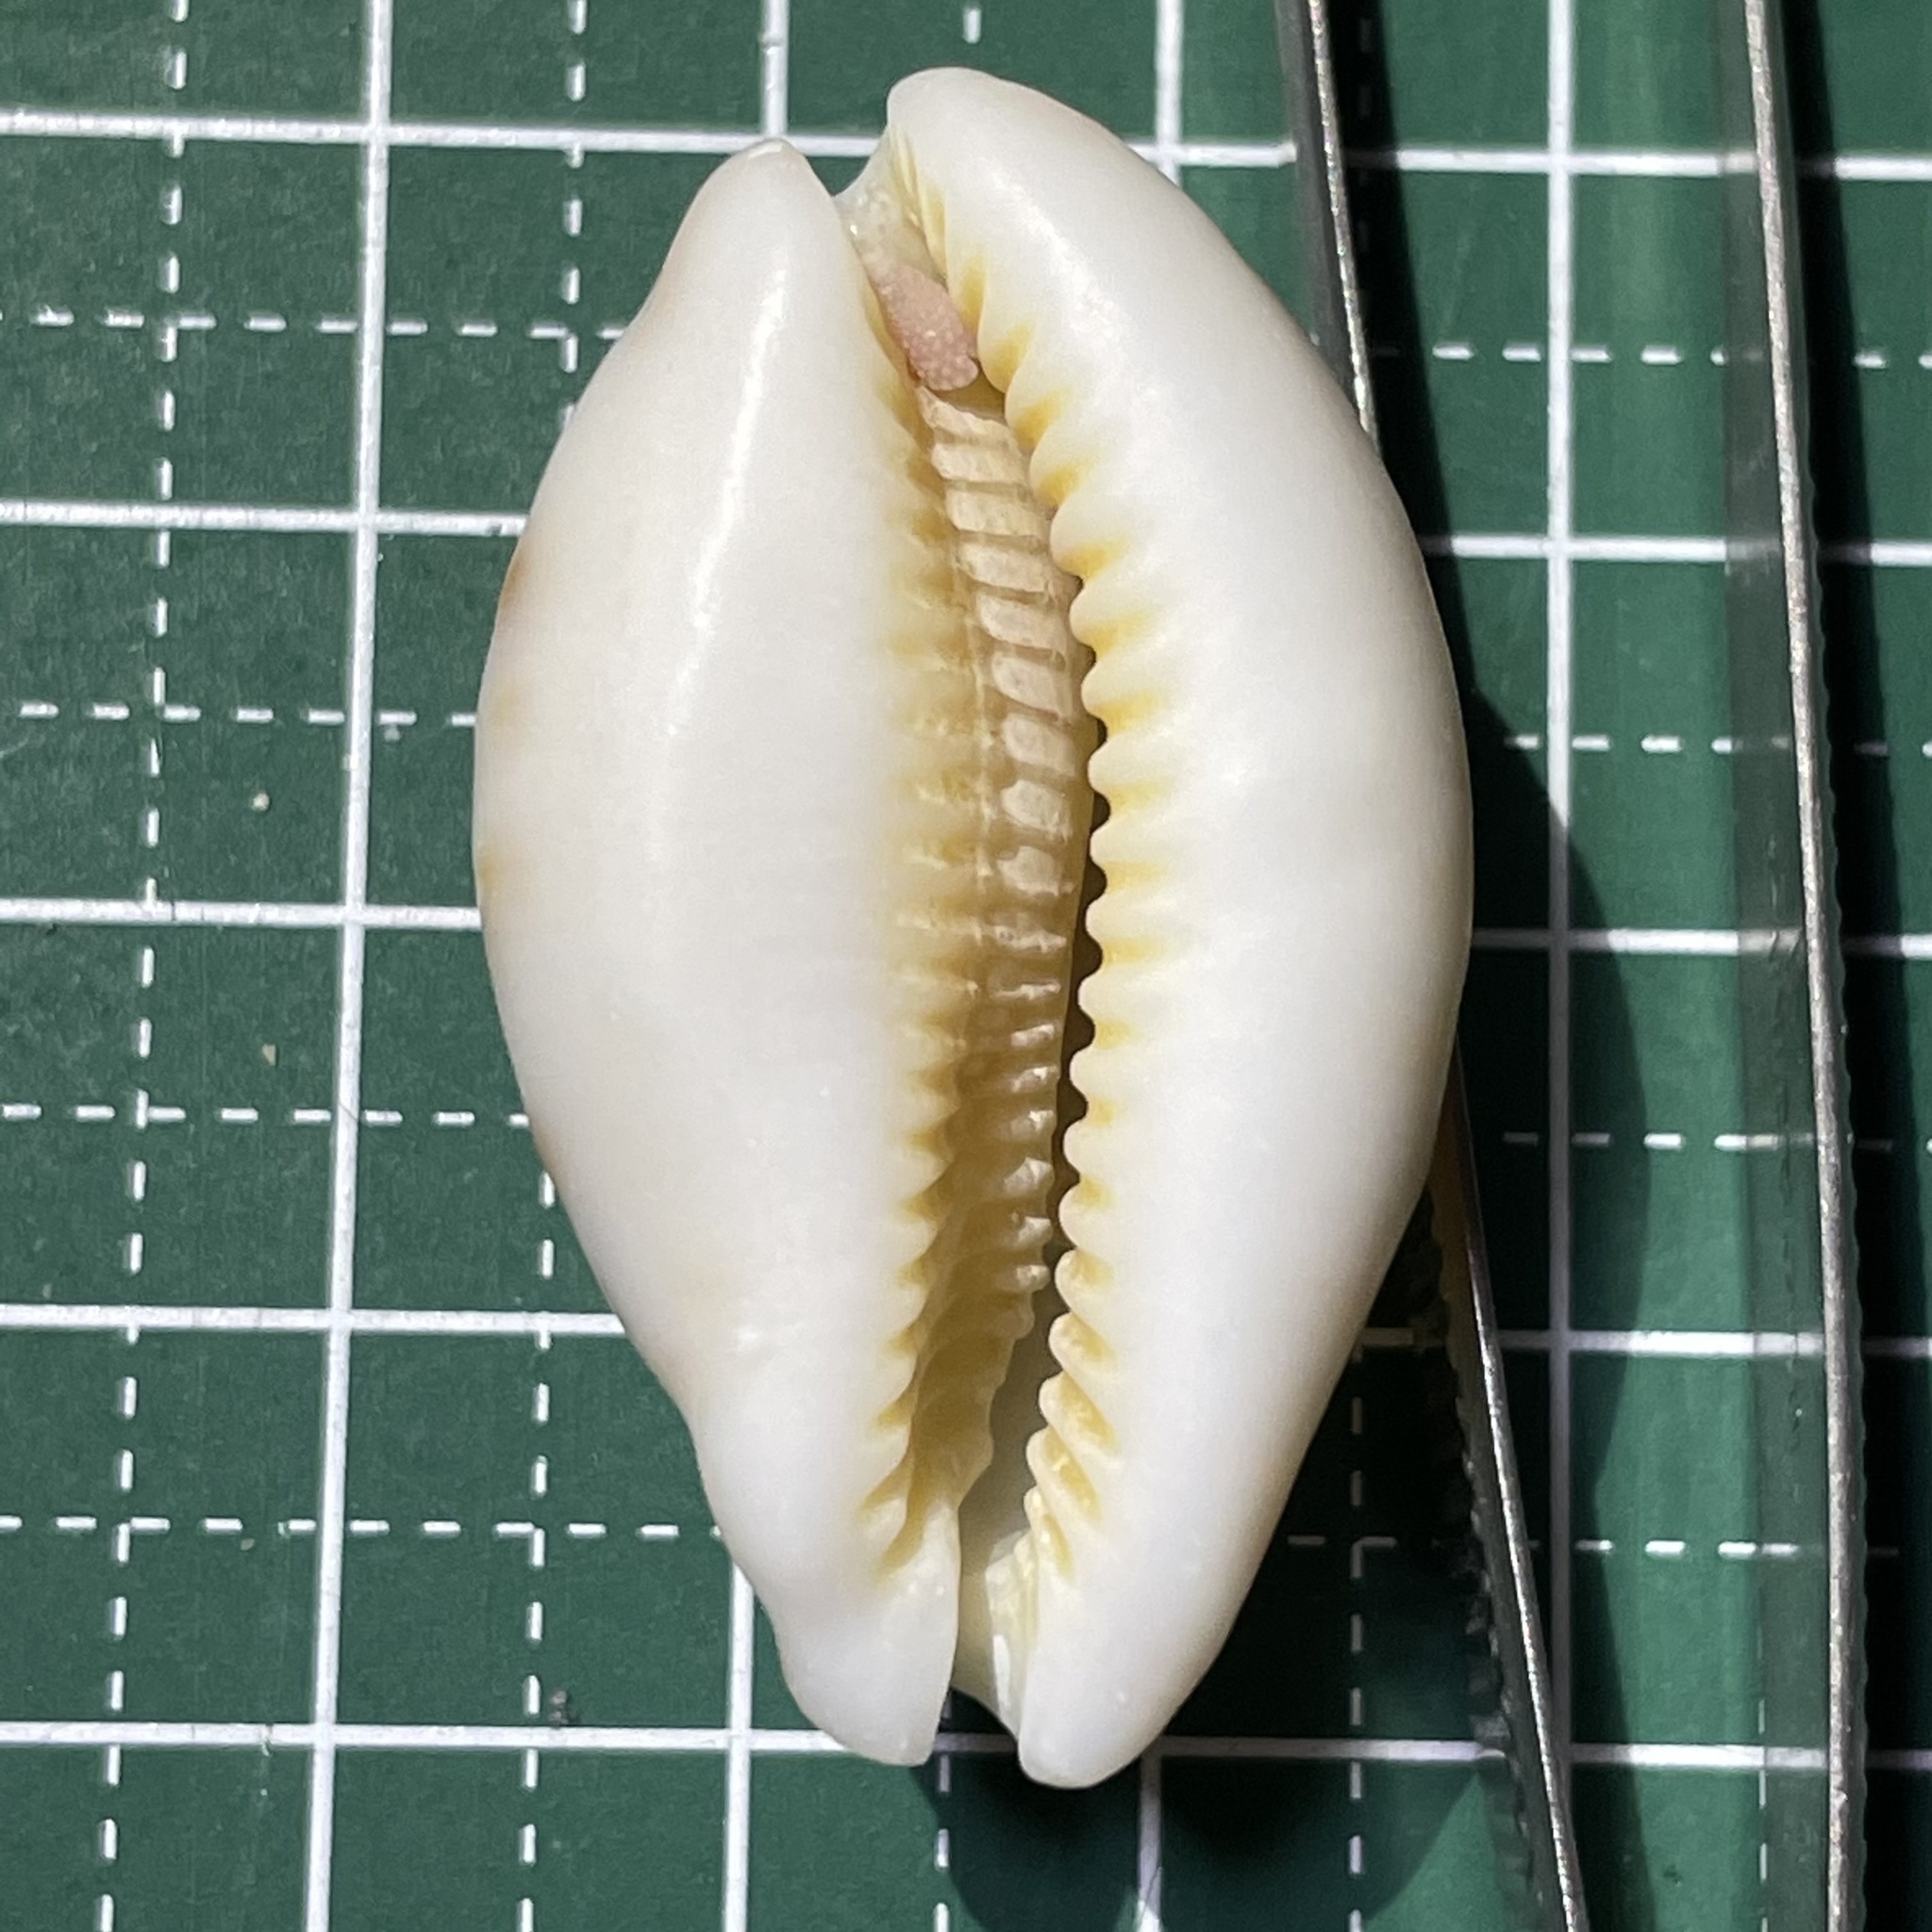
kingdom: Animalia
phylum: Mollusca
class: Gastropoda
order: Littorinimorpha
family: Cypraeidae
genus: Lyncina
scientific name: Lyncina lynx
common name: Bobcat cowrie
